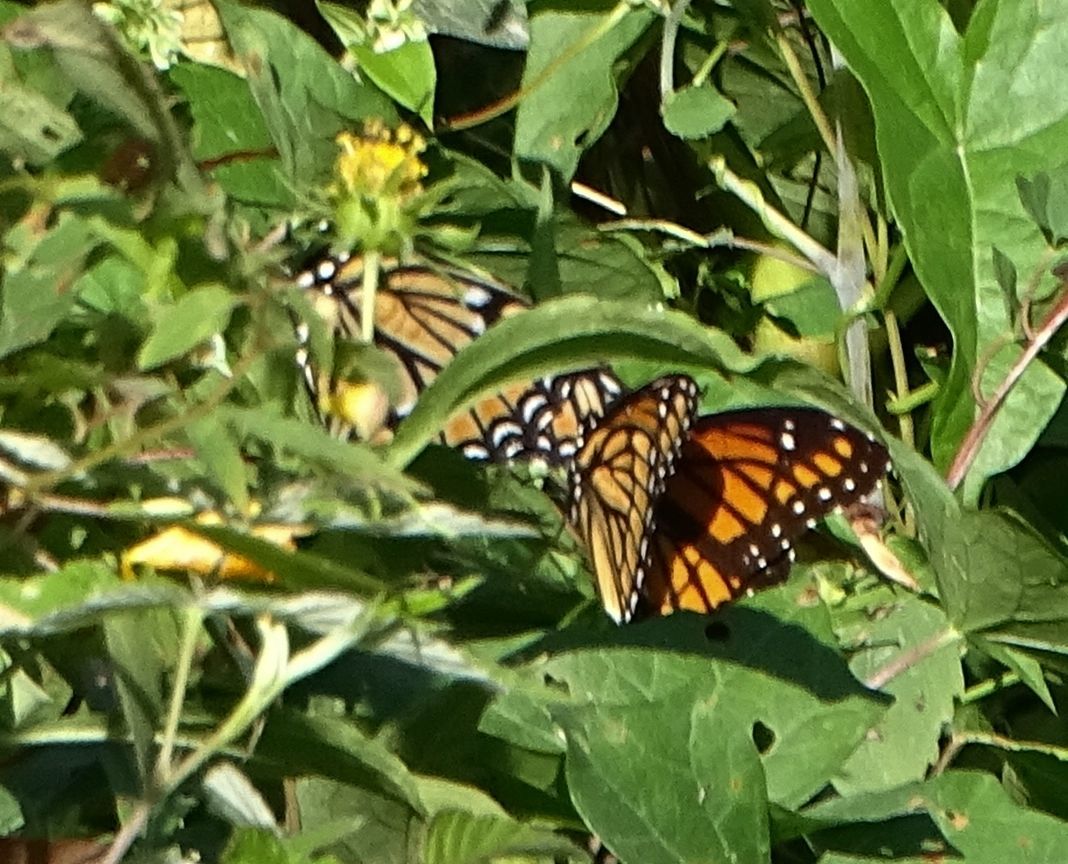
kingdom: Animalia
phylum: Arthropoda
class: Insecta
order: Lepidoptera
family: Nymphalidae
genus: Limenitis
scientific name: Limenitis archippus
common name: Viceroy
